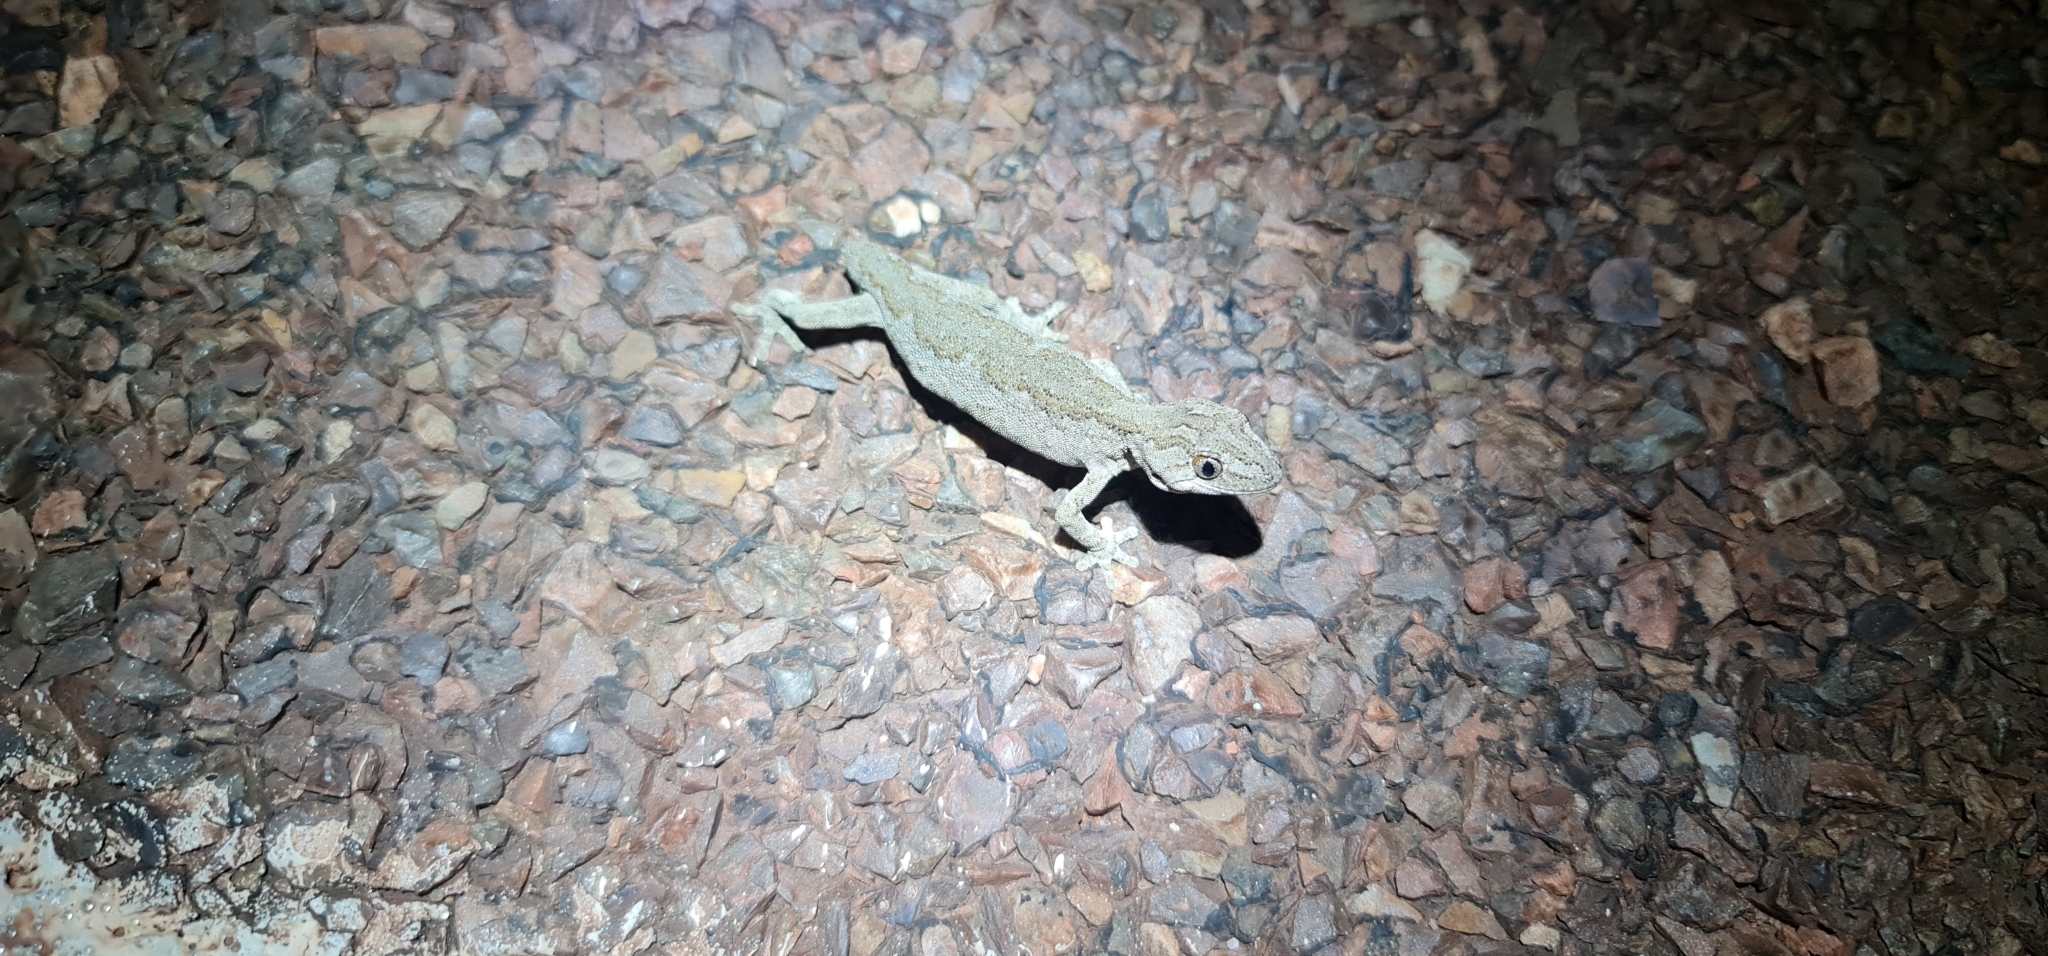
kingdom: Animalia
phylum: Chordata
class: Squamata
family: Diplodactylidae
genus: Strophurus
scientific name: Strophurus intermedius
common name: Eastern spiny-tailed gecko
